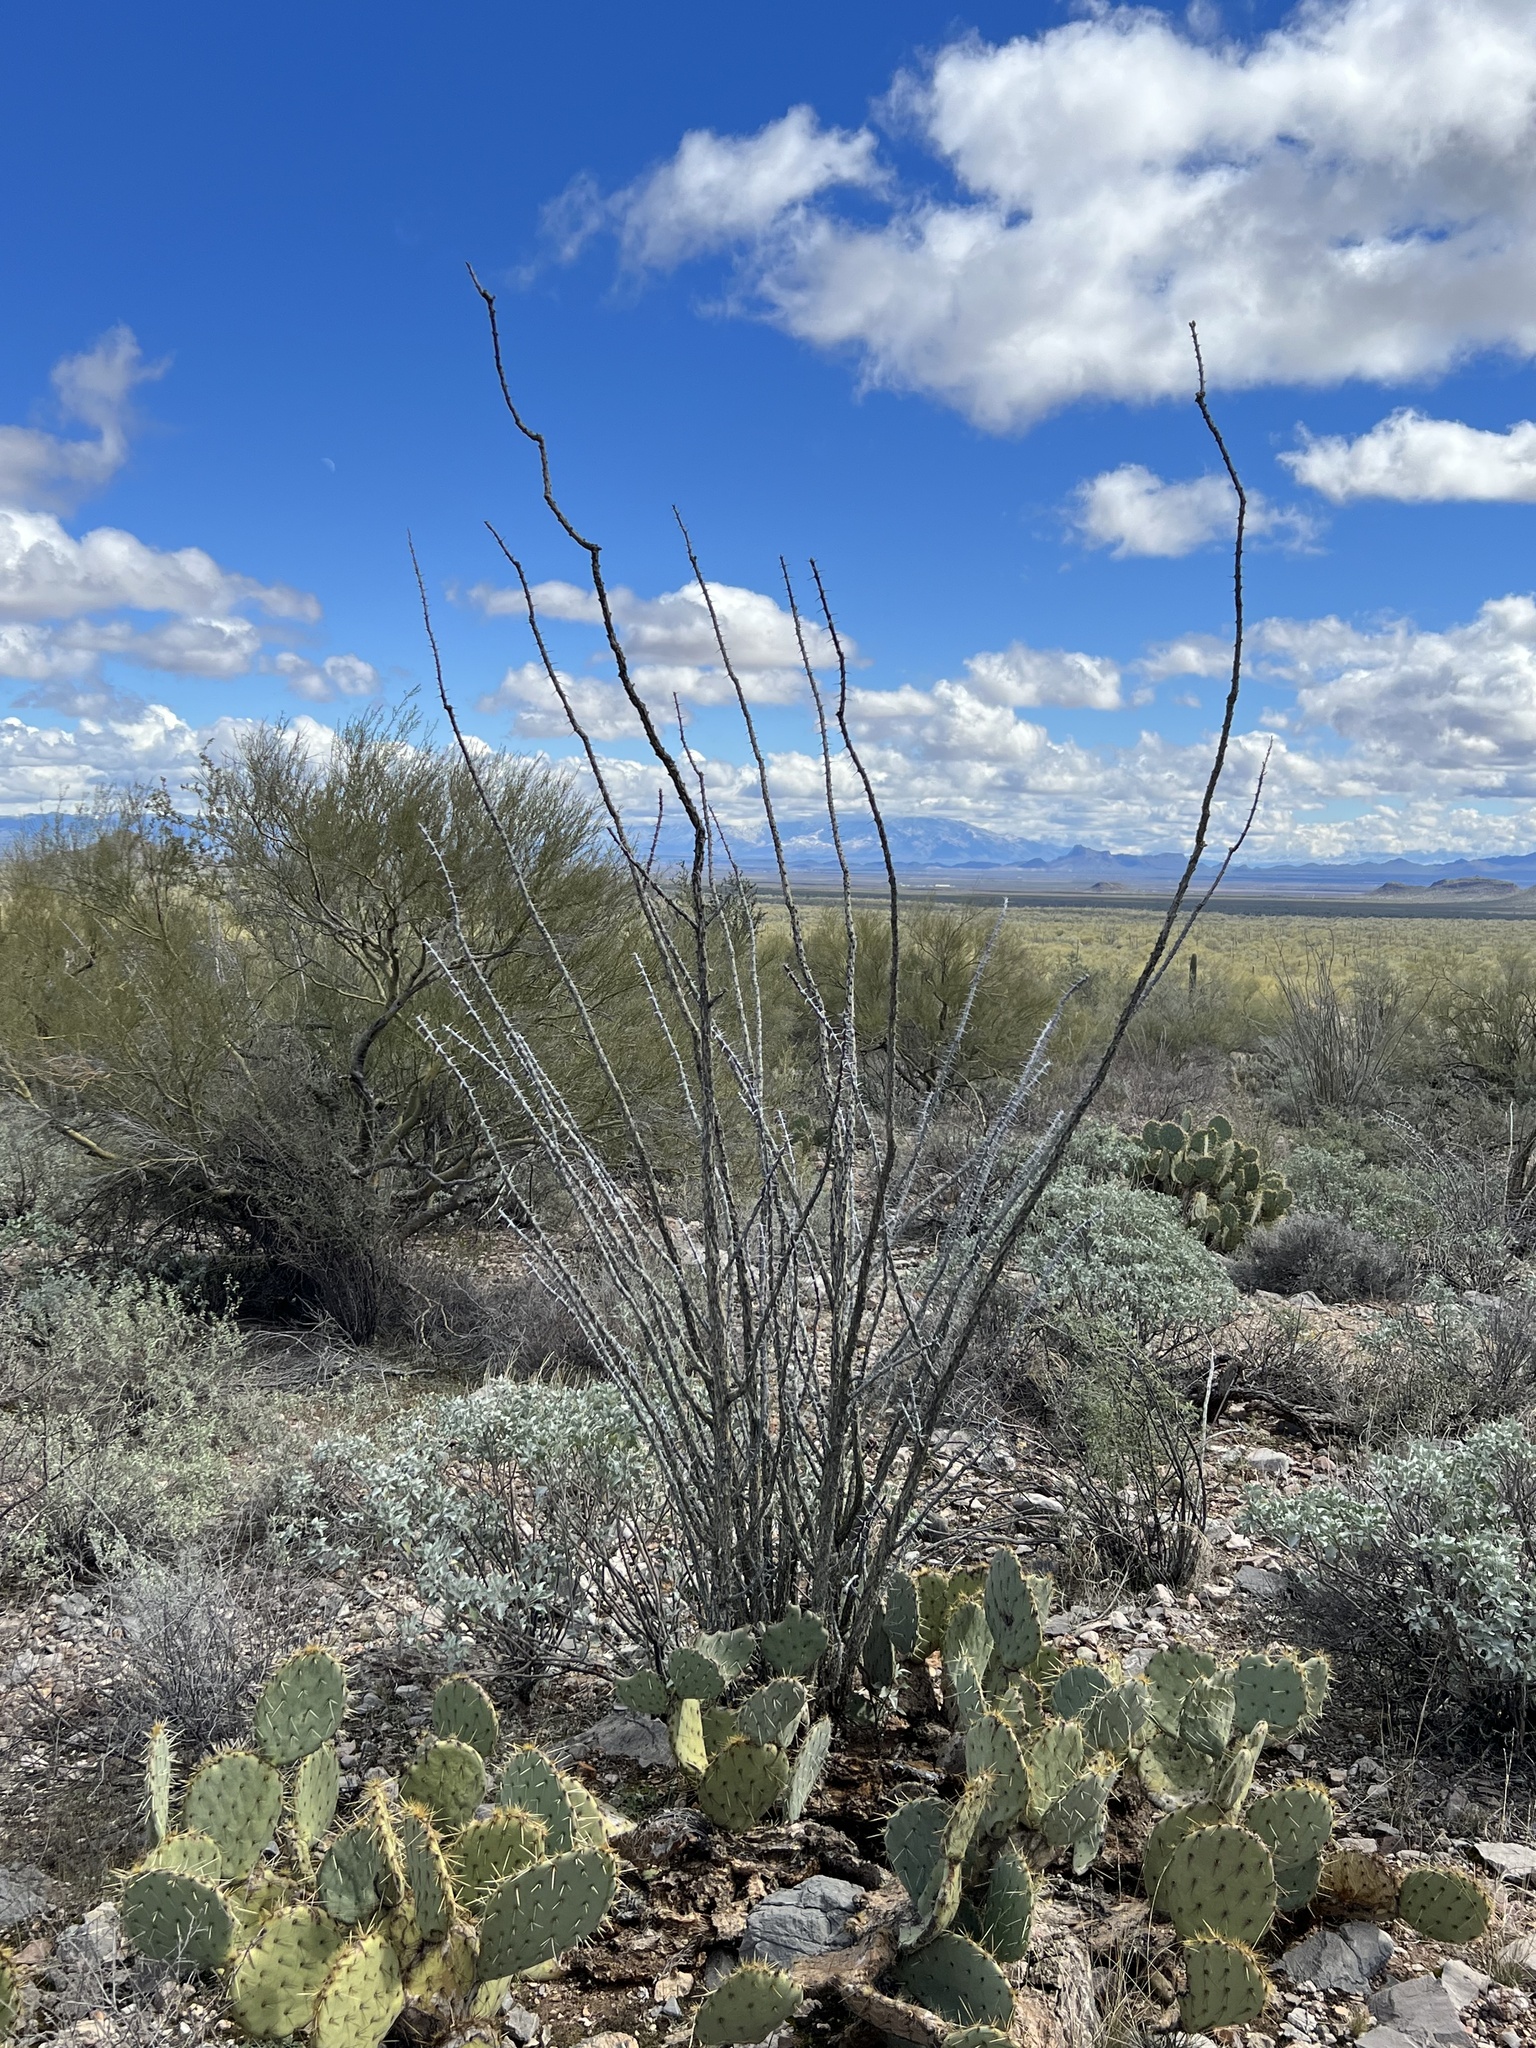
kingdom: Plantae
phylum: Tracheophyta
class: Magnoliopsida
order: Ericales
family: Fouquieriaceae
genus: Fouquieria
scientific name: Fouquieria splendens
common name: Vine-cactus
